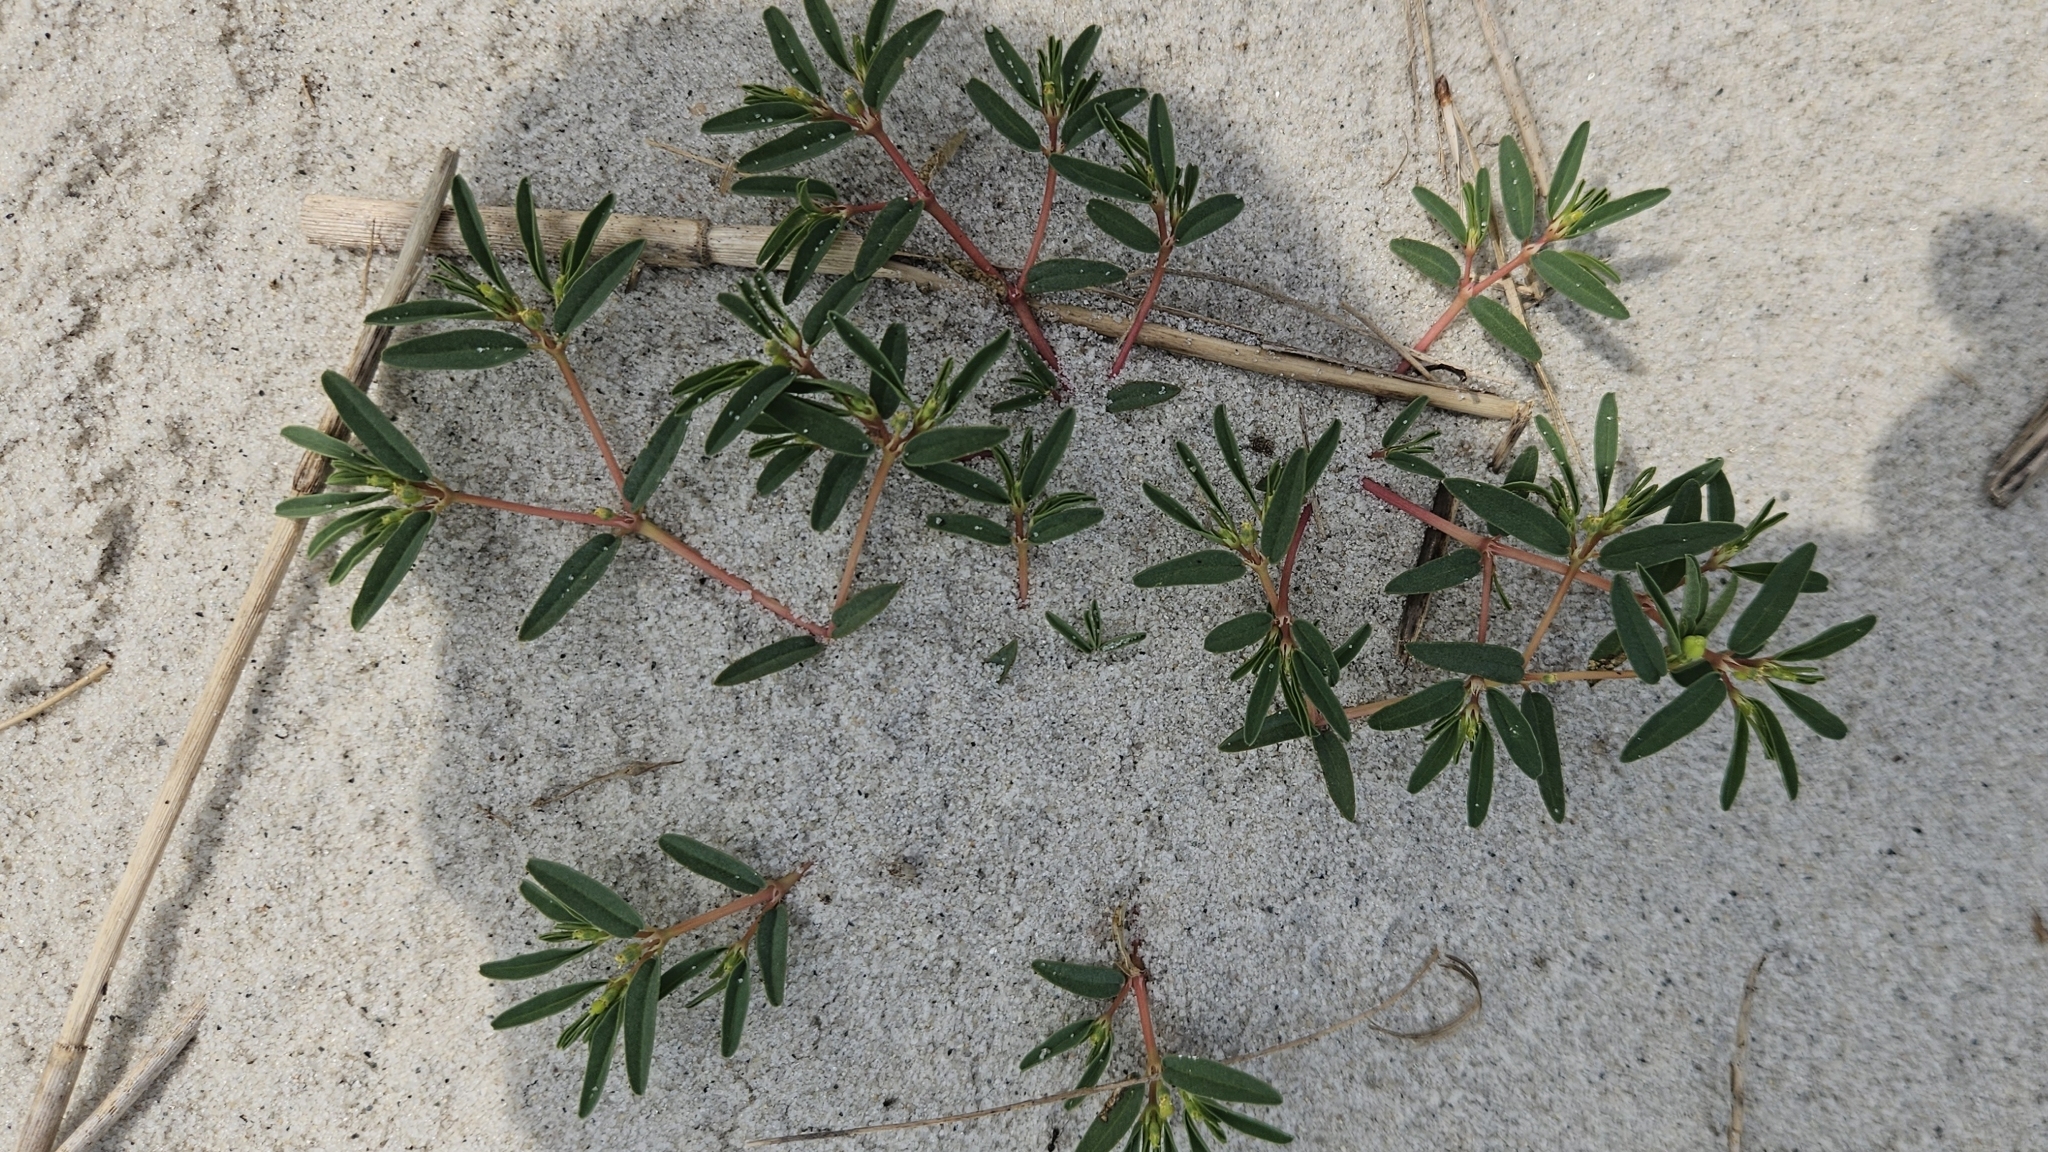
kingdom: Plantae
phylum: Tracheophyta
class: Magnoliopsida
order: Malpighiales
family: Euphorbiaceae
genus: Euphorbia
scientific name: Euphorbia polygonifolia
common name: Knotweed spurge
